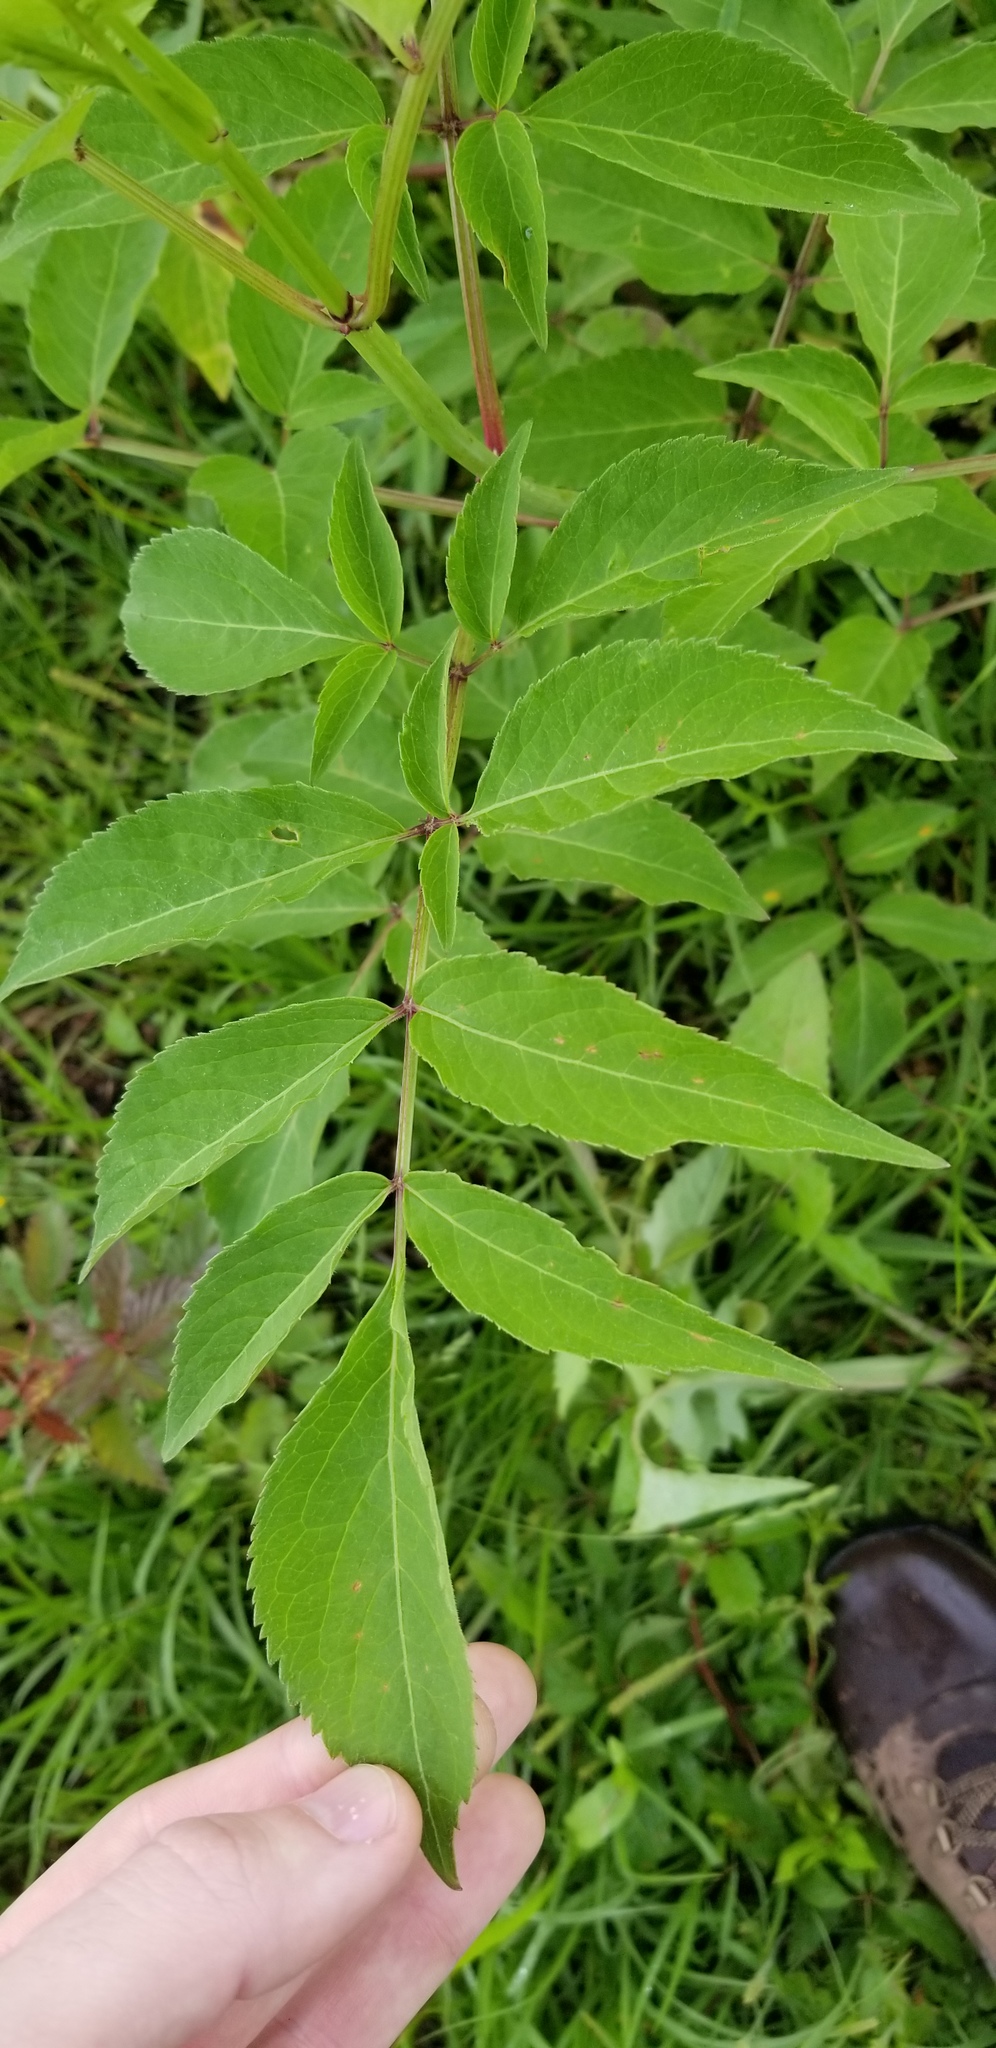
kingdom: Plantae
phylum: Tracheophyta
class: Magnoliopsida
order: Dipsacales
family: Viburnaceae
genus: Sambucus
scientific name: Sambucus canadensis
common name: American elder
